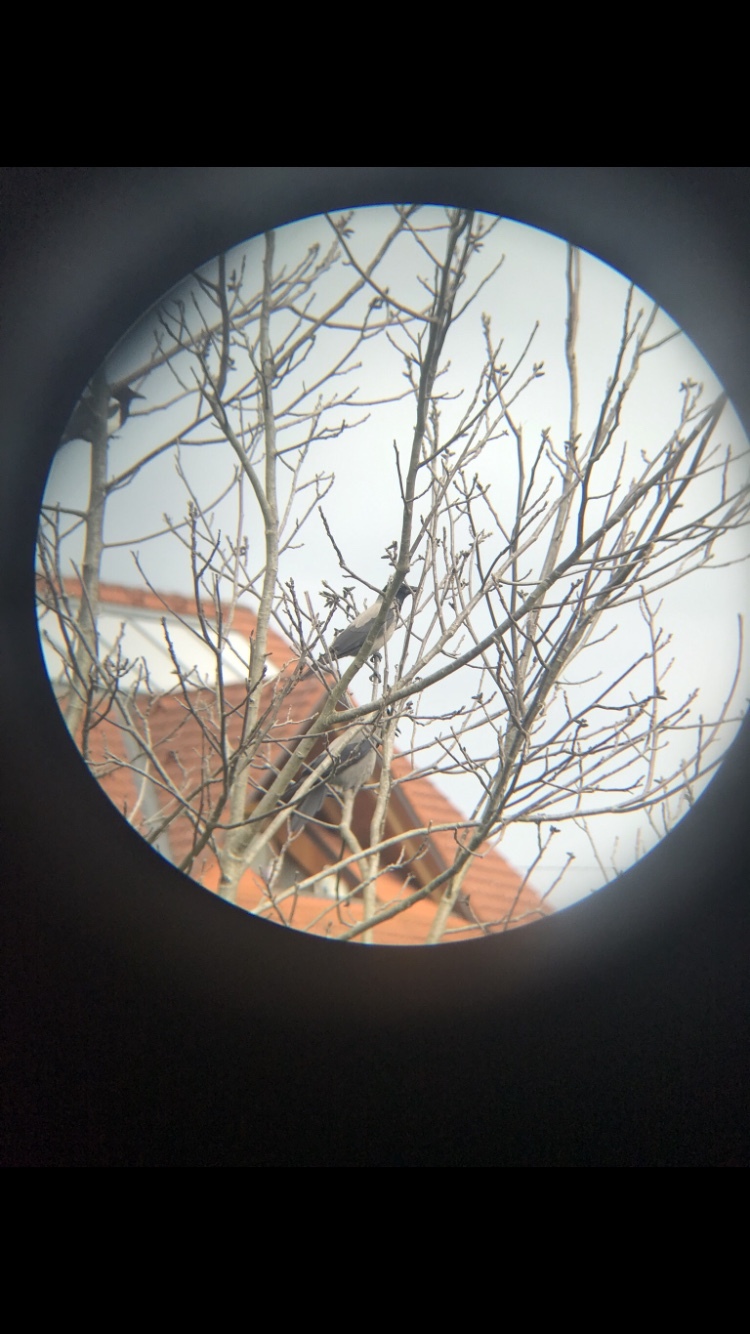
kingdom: Animalia
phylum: Chordata
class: Aves
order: Passeriformes
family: Corvidae
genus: Corvus
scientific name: Corvus cornix
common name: Hooded crow
